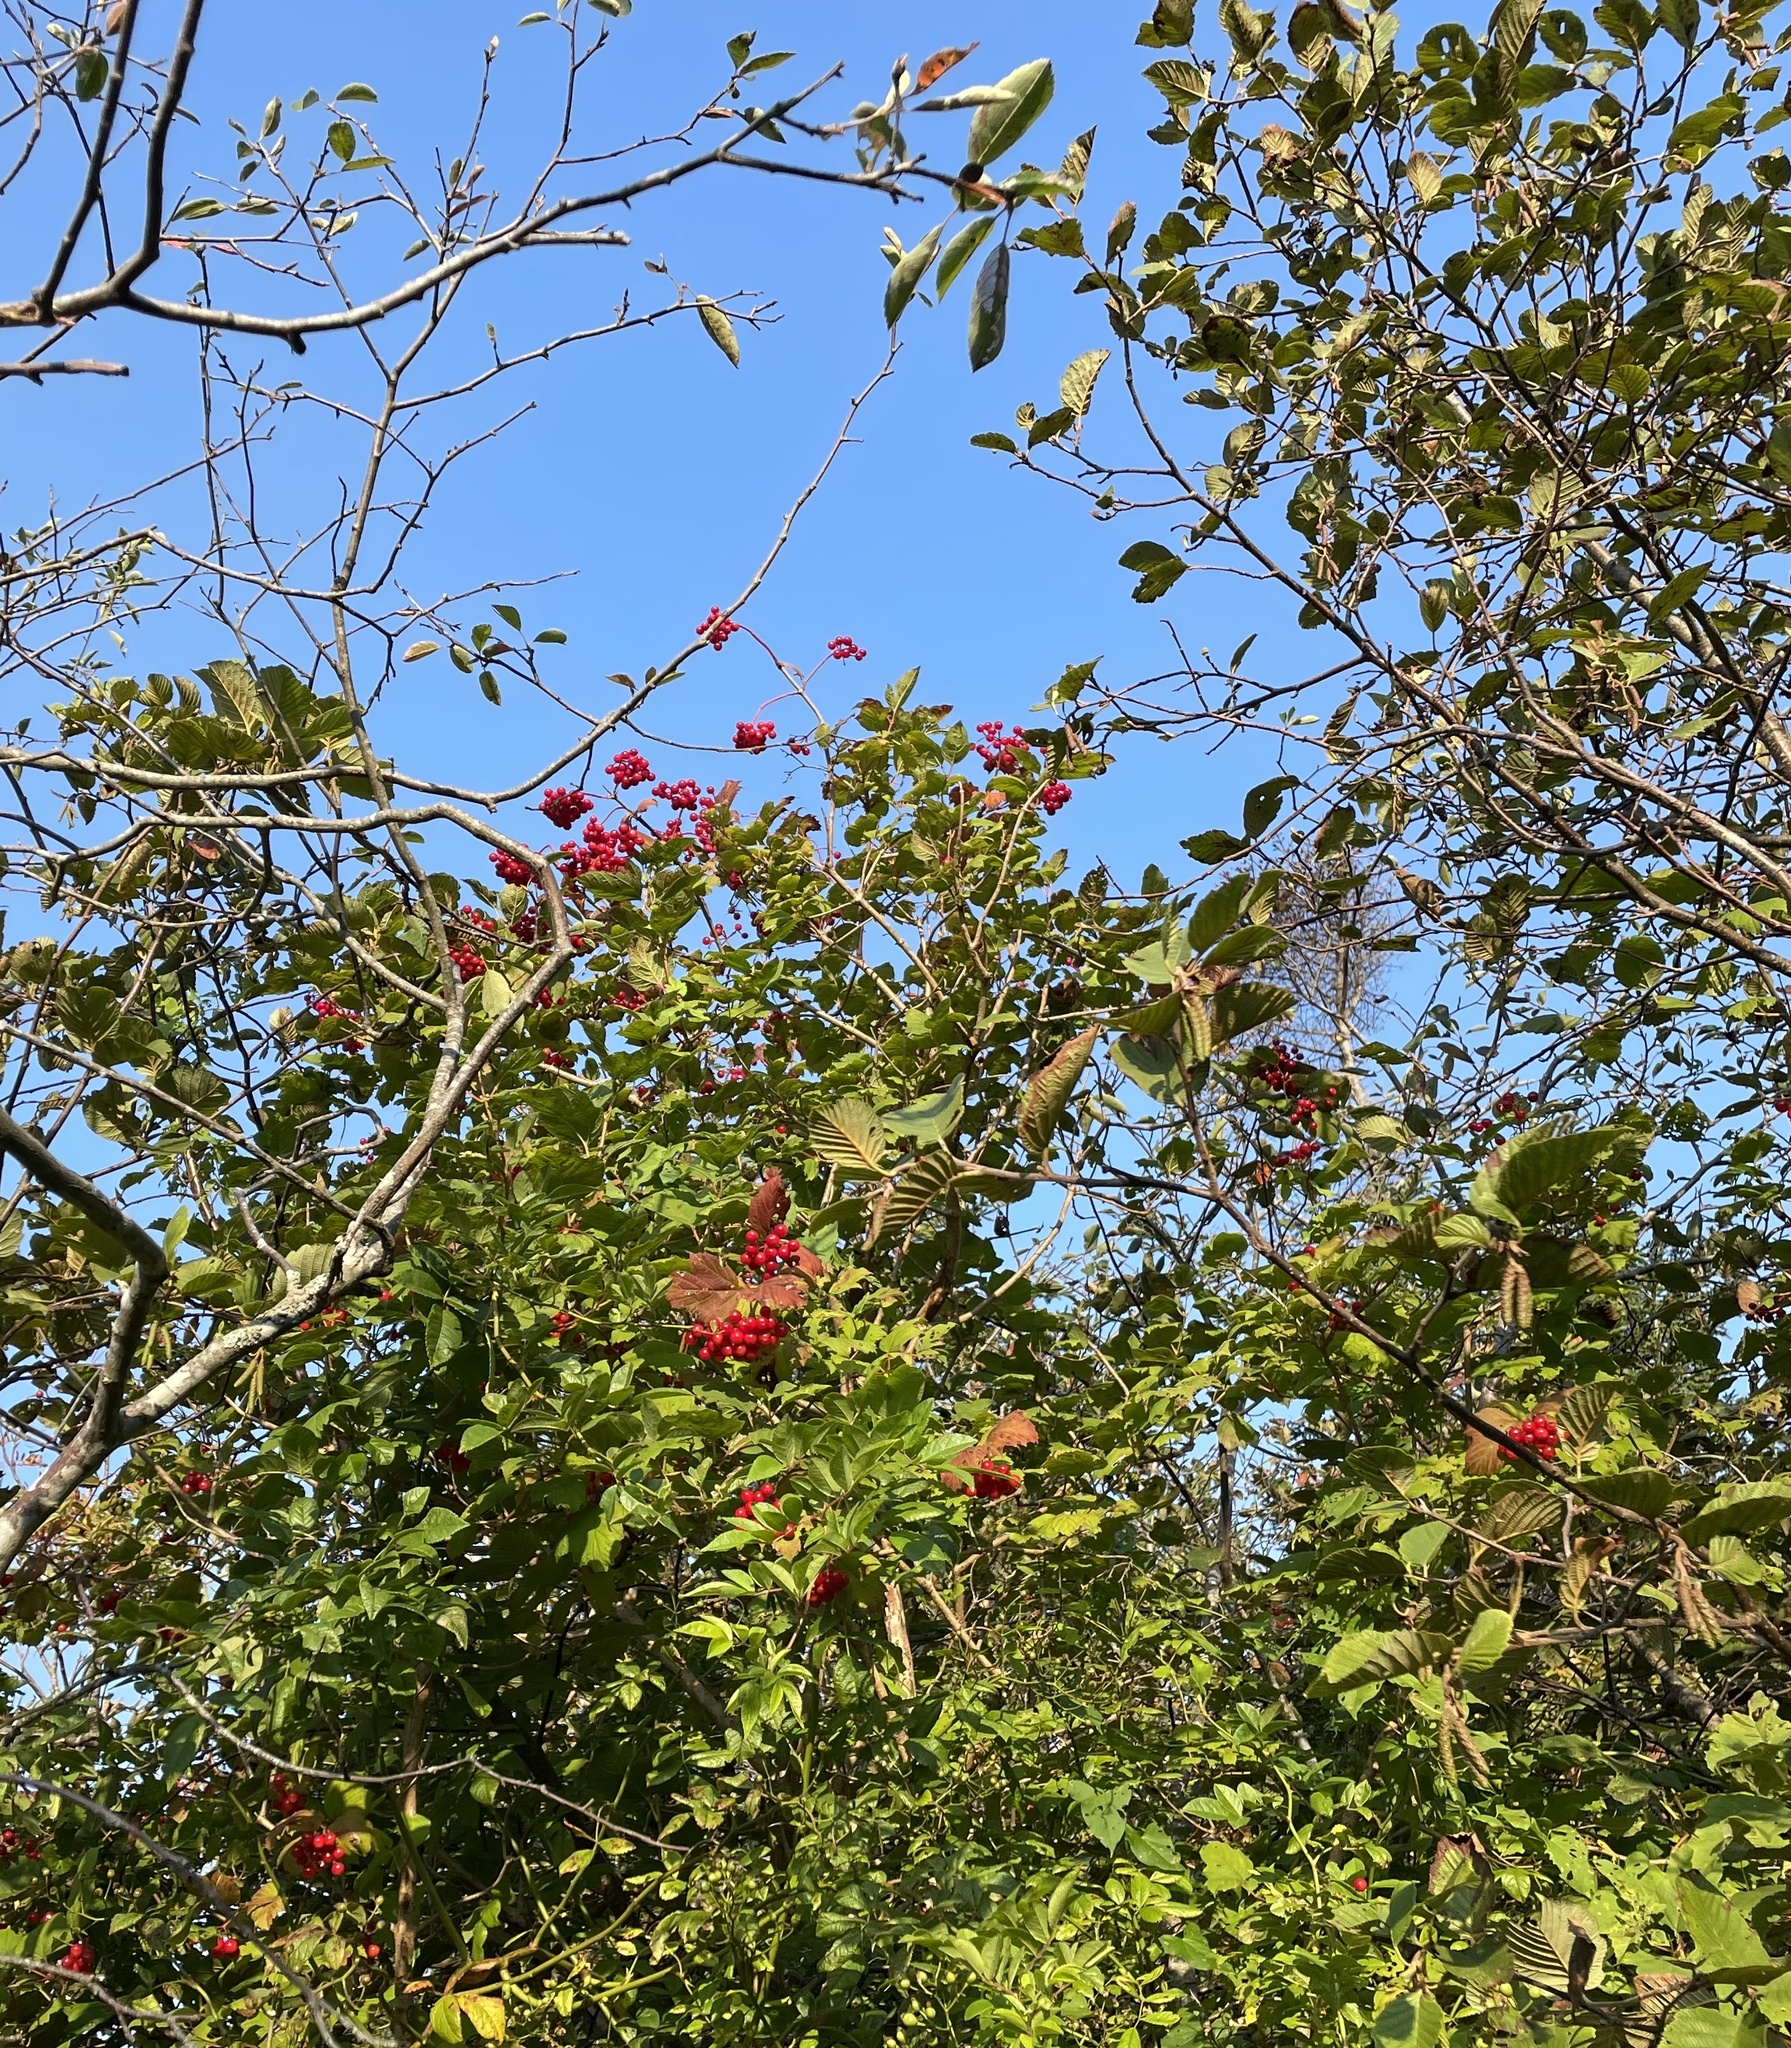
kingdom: Plantae
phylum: Tracheophyta
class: Magnoliopsida
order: Dipsacales
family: Viburnaceae
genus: Viburnum
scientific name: Viburnum opulus
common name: Guelder-rose
